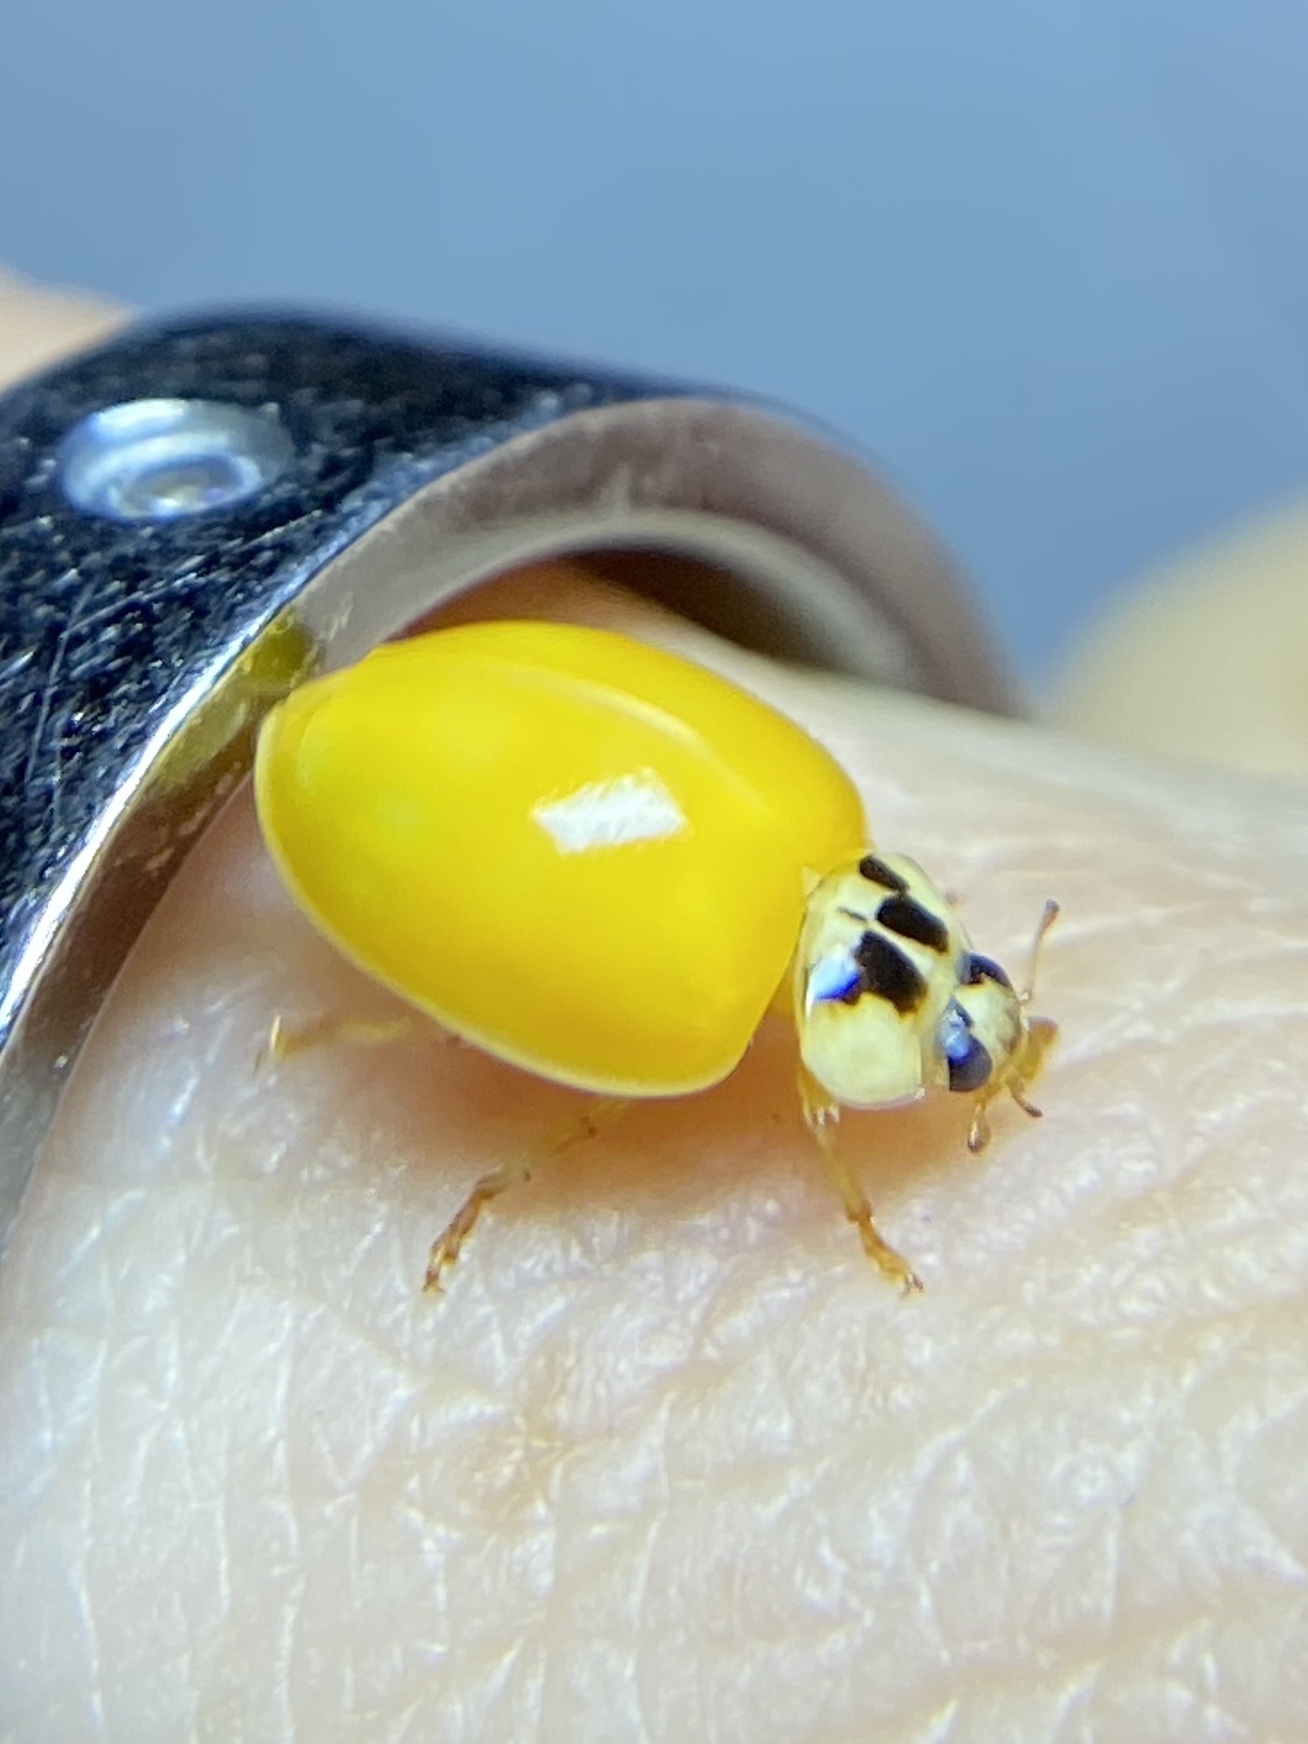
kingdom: Animalia
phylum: Arthropoda
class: Insecta
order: Coleoptera
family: Coccinellidae
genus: Harmonia
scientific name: Harmonia axyridis
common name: Harlequin ladybird
